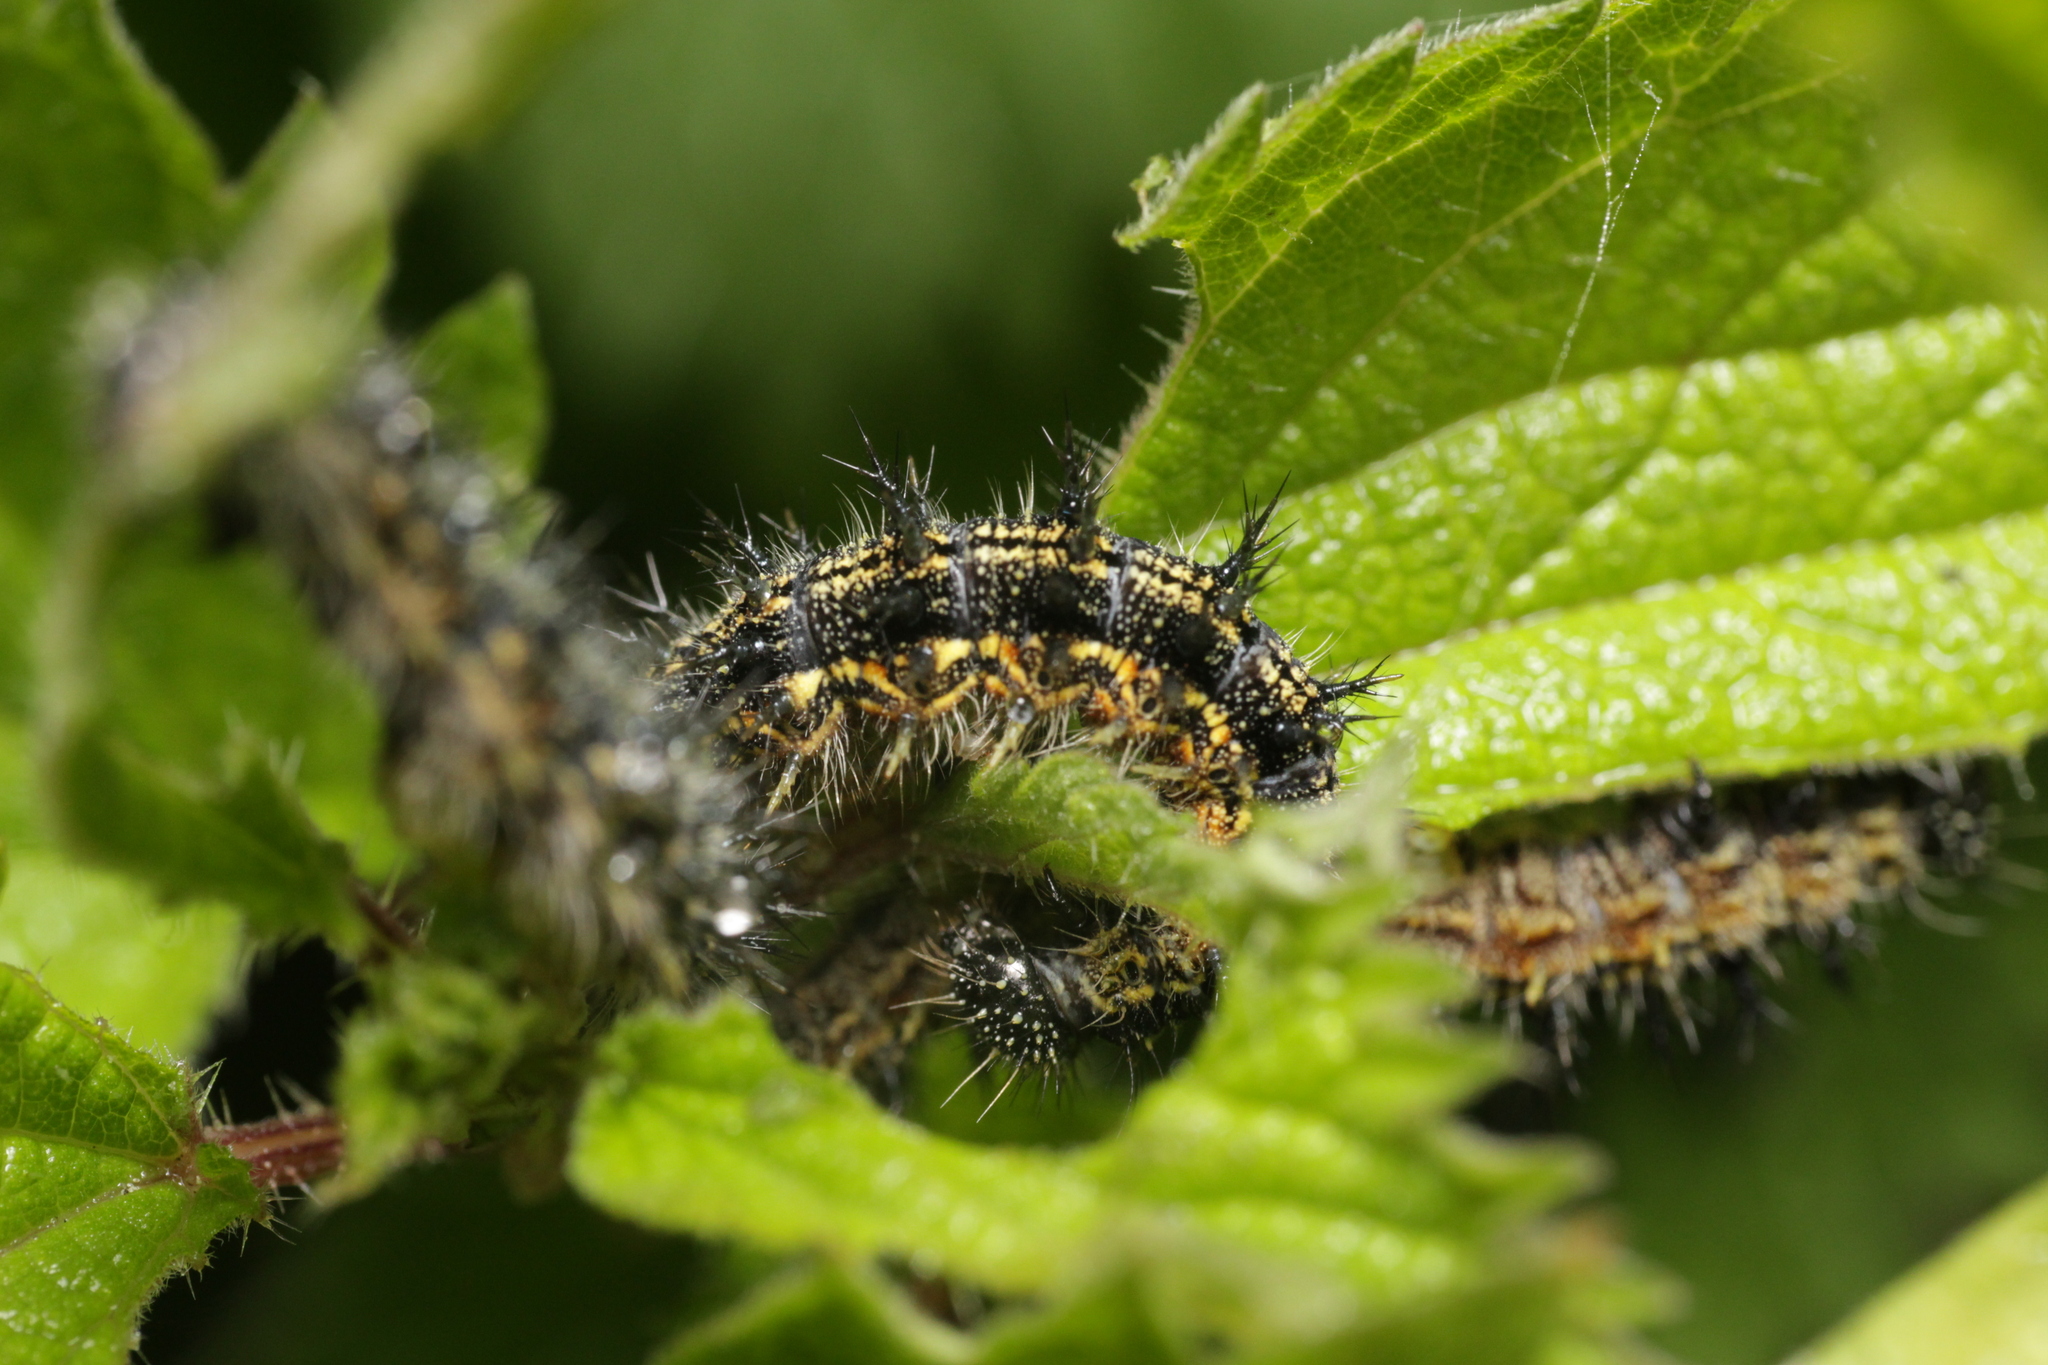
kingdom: Animalia
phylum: Arthropoda
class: Insecta
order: Lepidoptera
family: Nymphalidae
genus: Aglais
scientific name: Aglais urticae
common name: Small tortoiseshell
